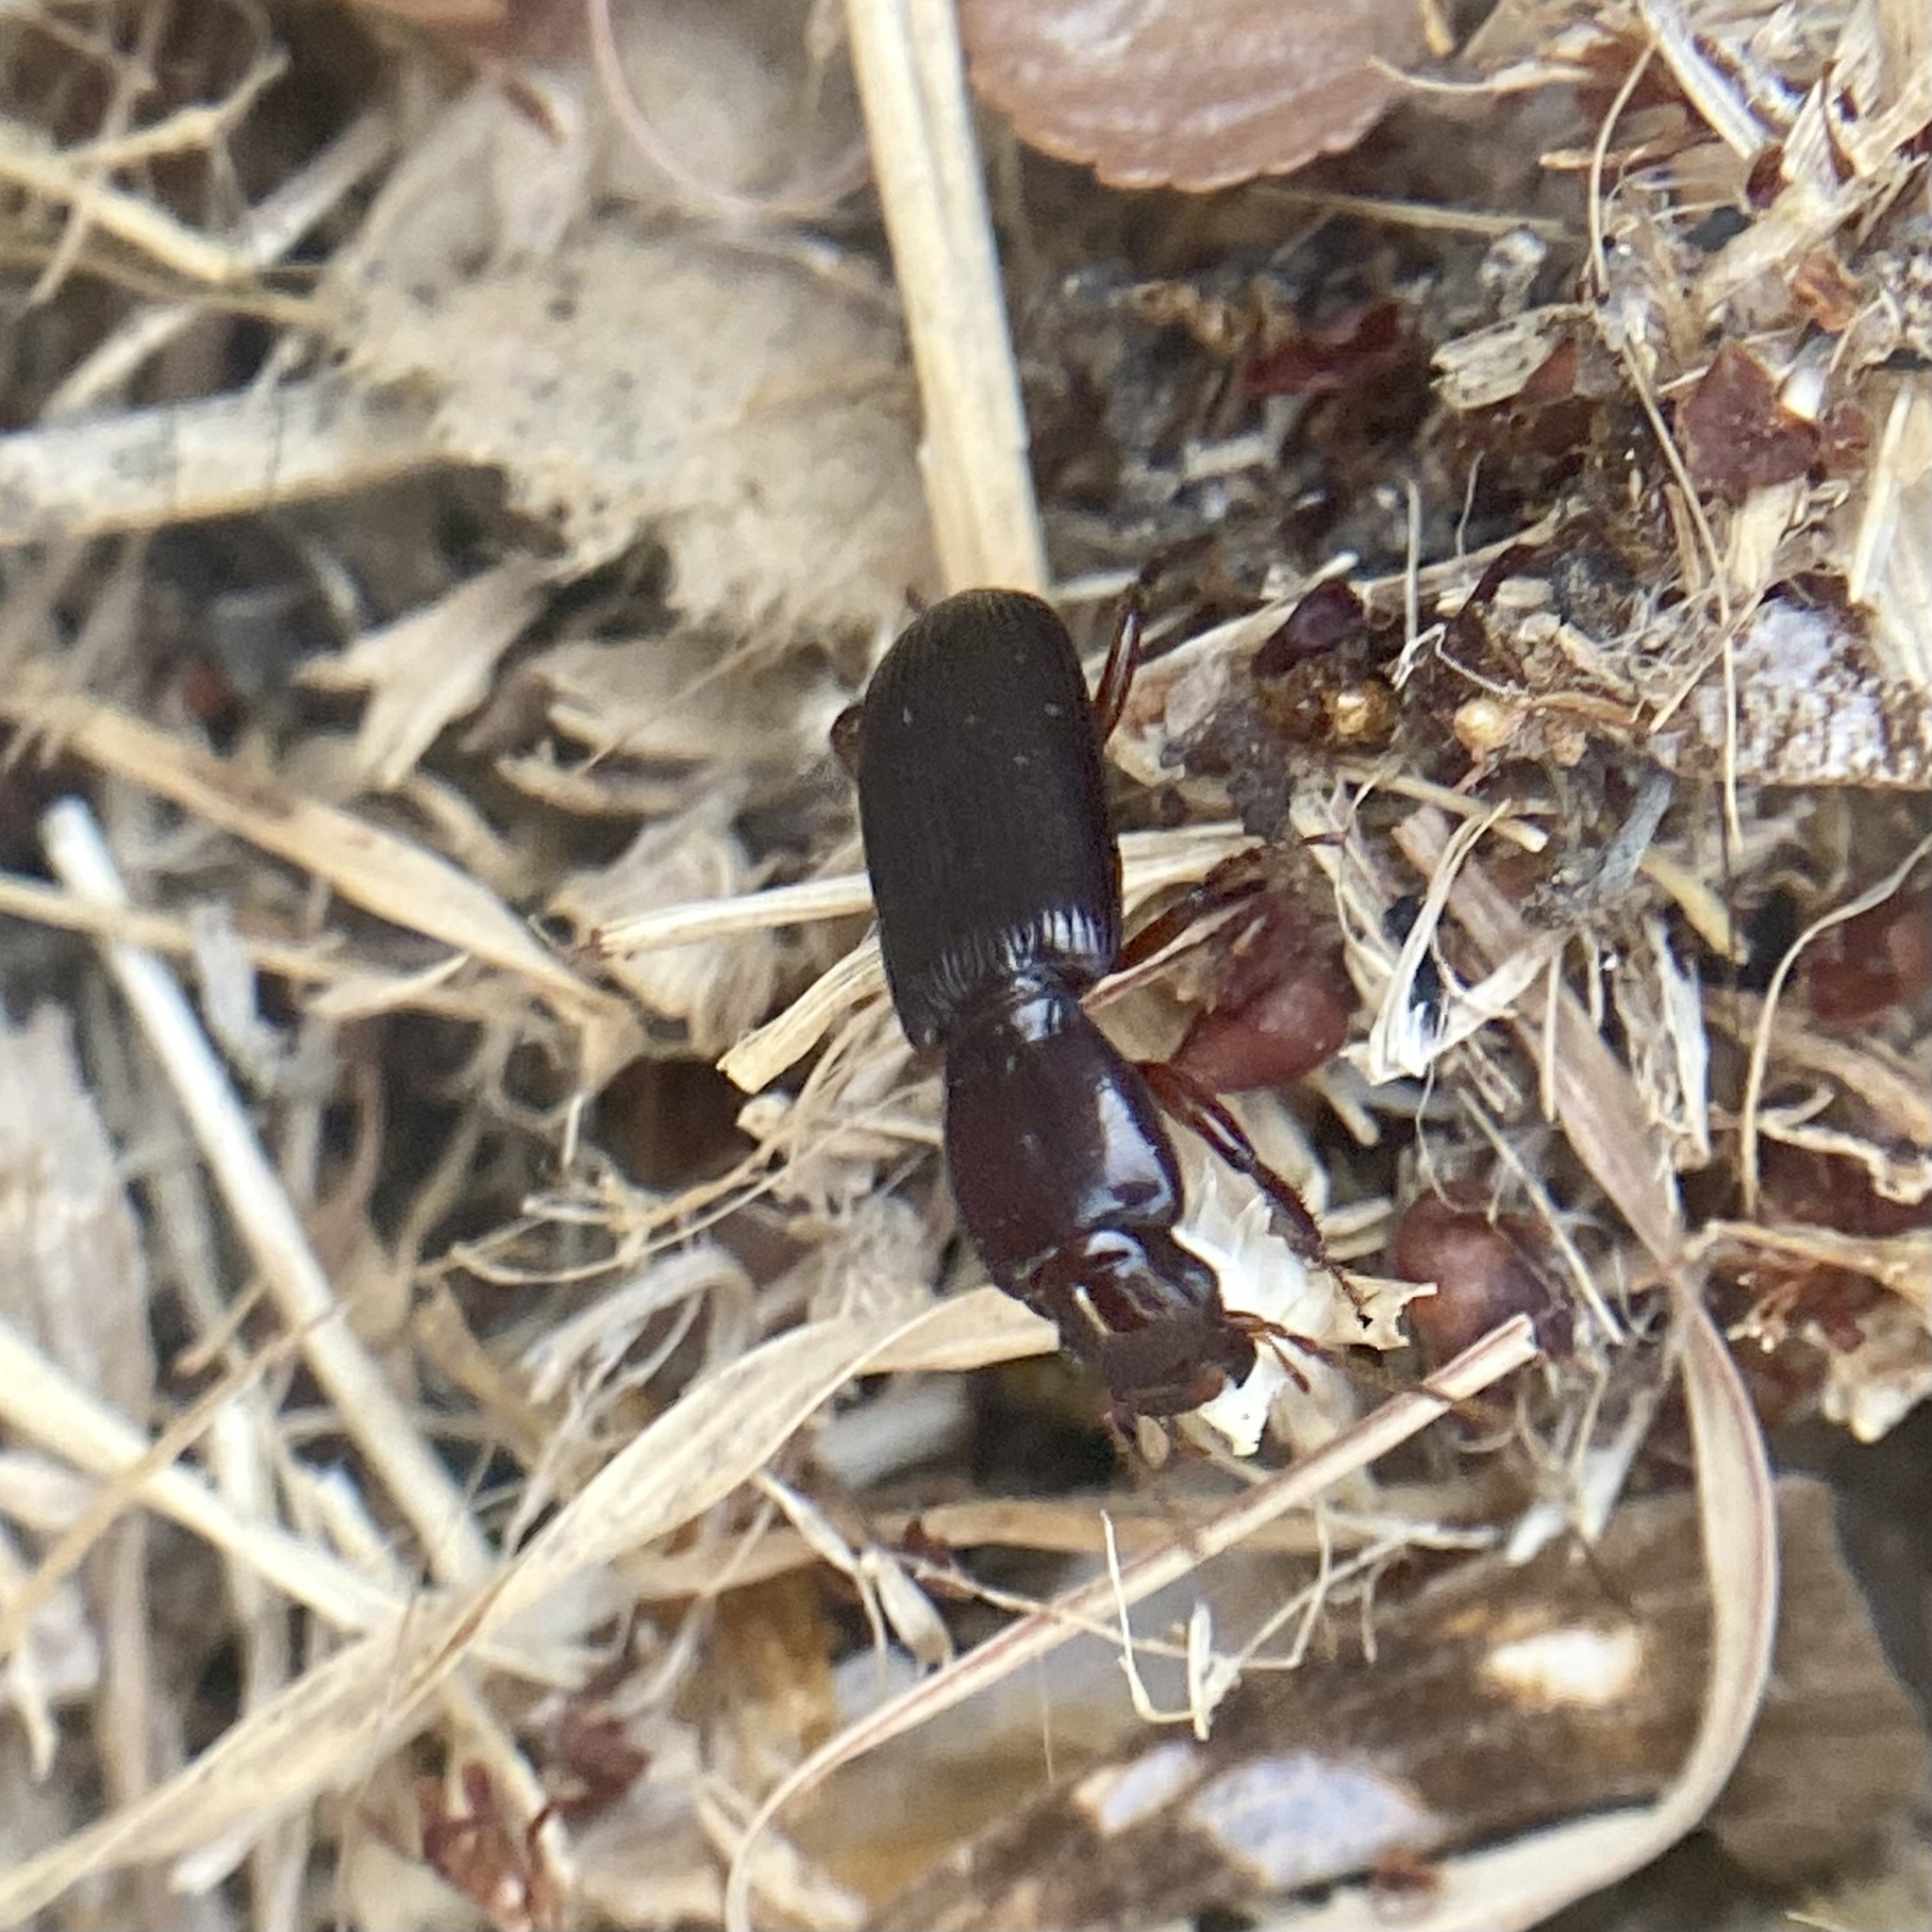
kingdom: Animalia
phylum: Arthropoda
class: Insecta
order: Coleoptera
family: Carabidae
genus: Stenomorphus
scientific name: Stenomorphus californicus
